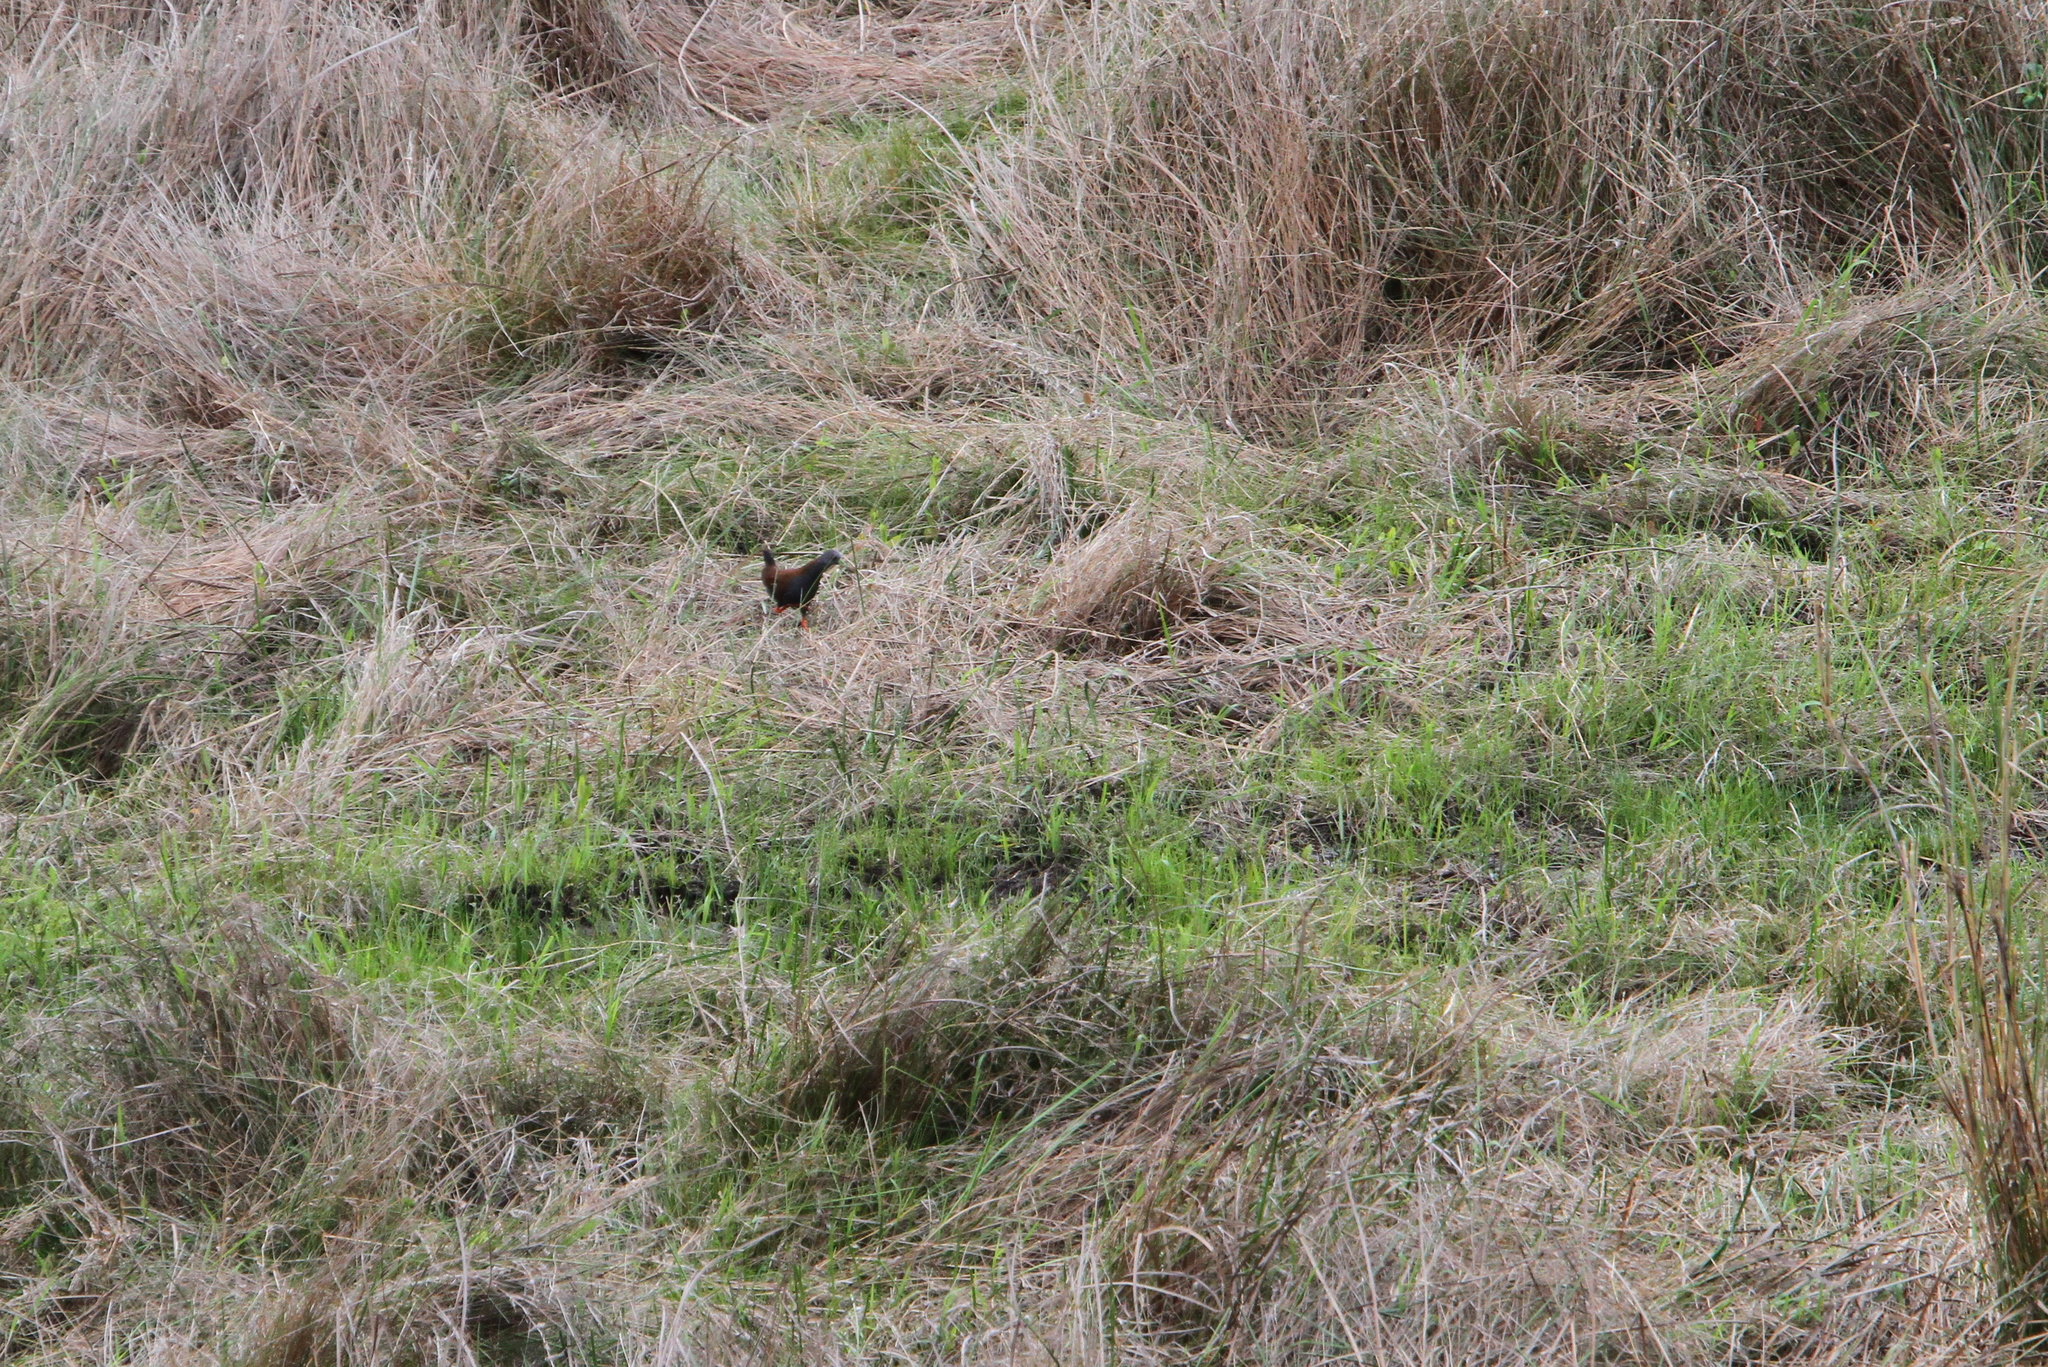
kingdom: Animalia
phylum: Chordata
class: Aves
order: Gruiformes
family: Rallidae
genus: Porzana
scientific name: Porzana bicolor
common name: Black-tailed crake
